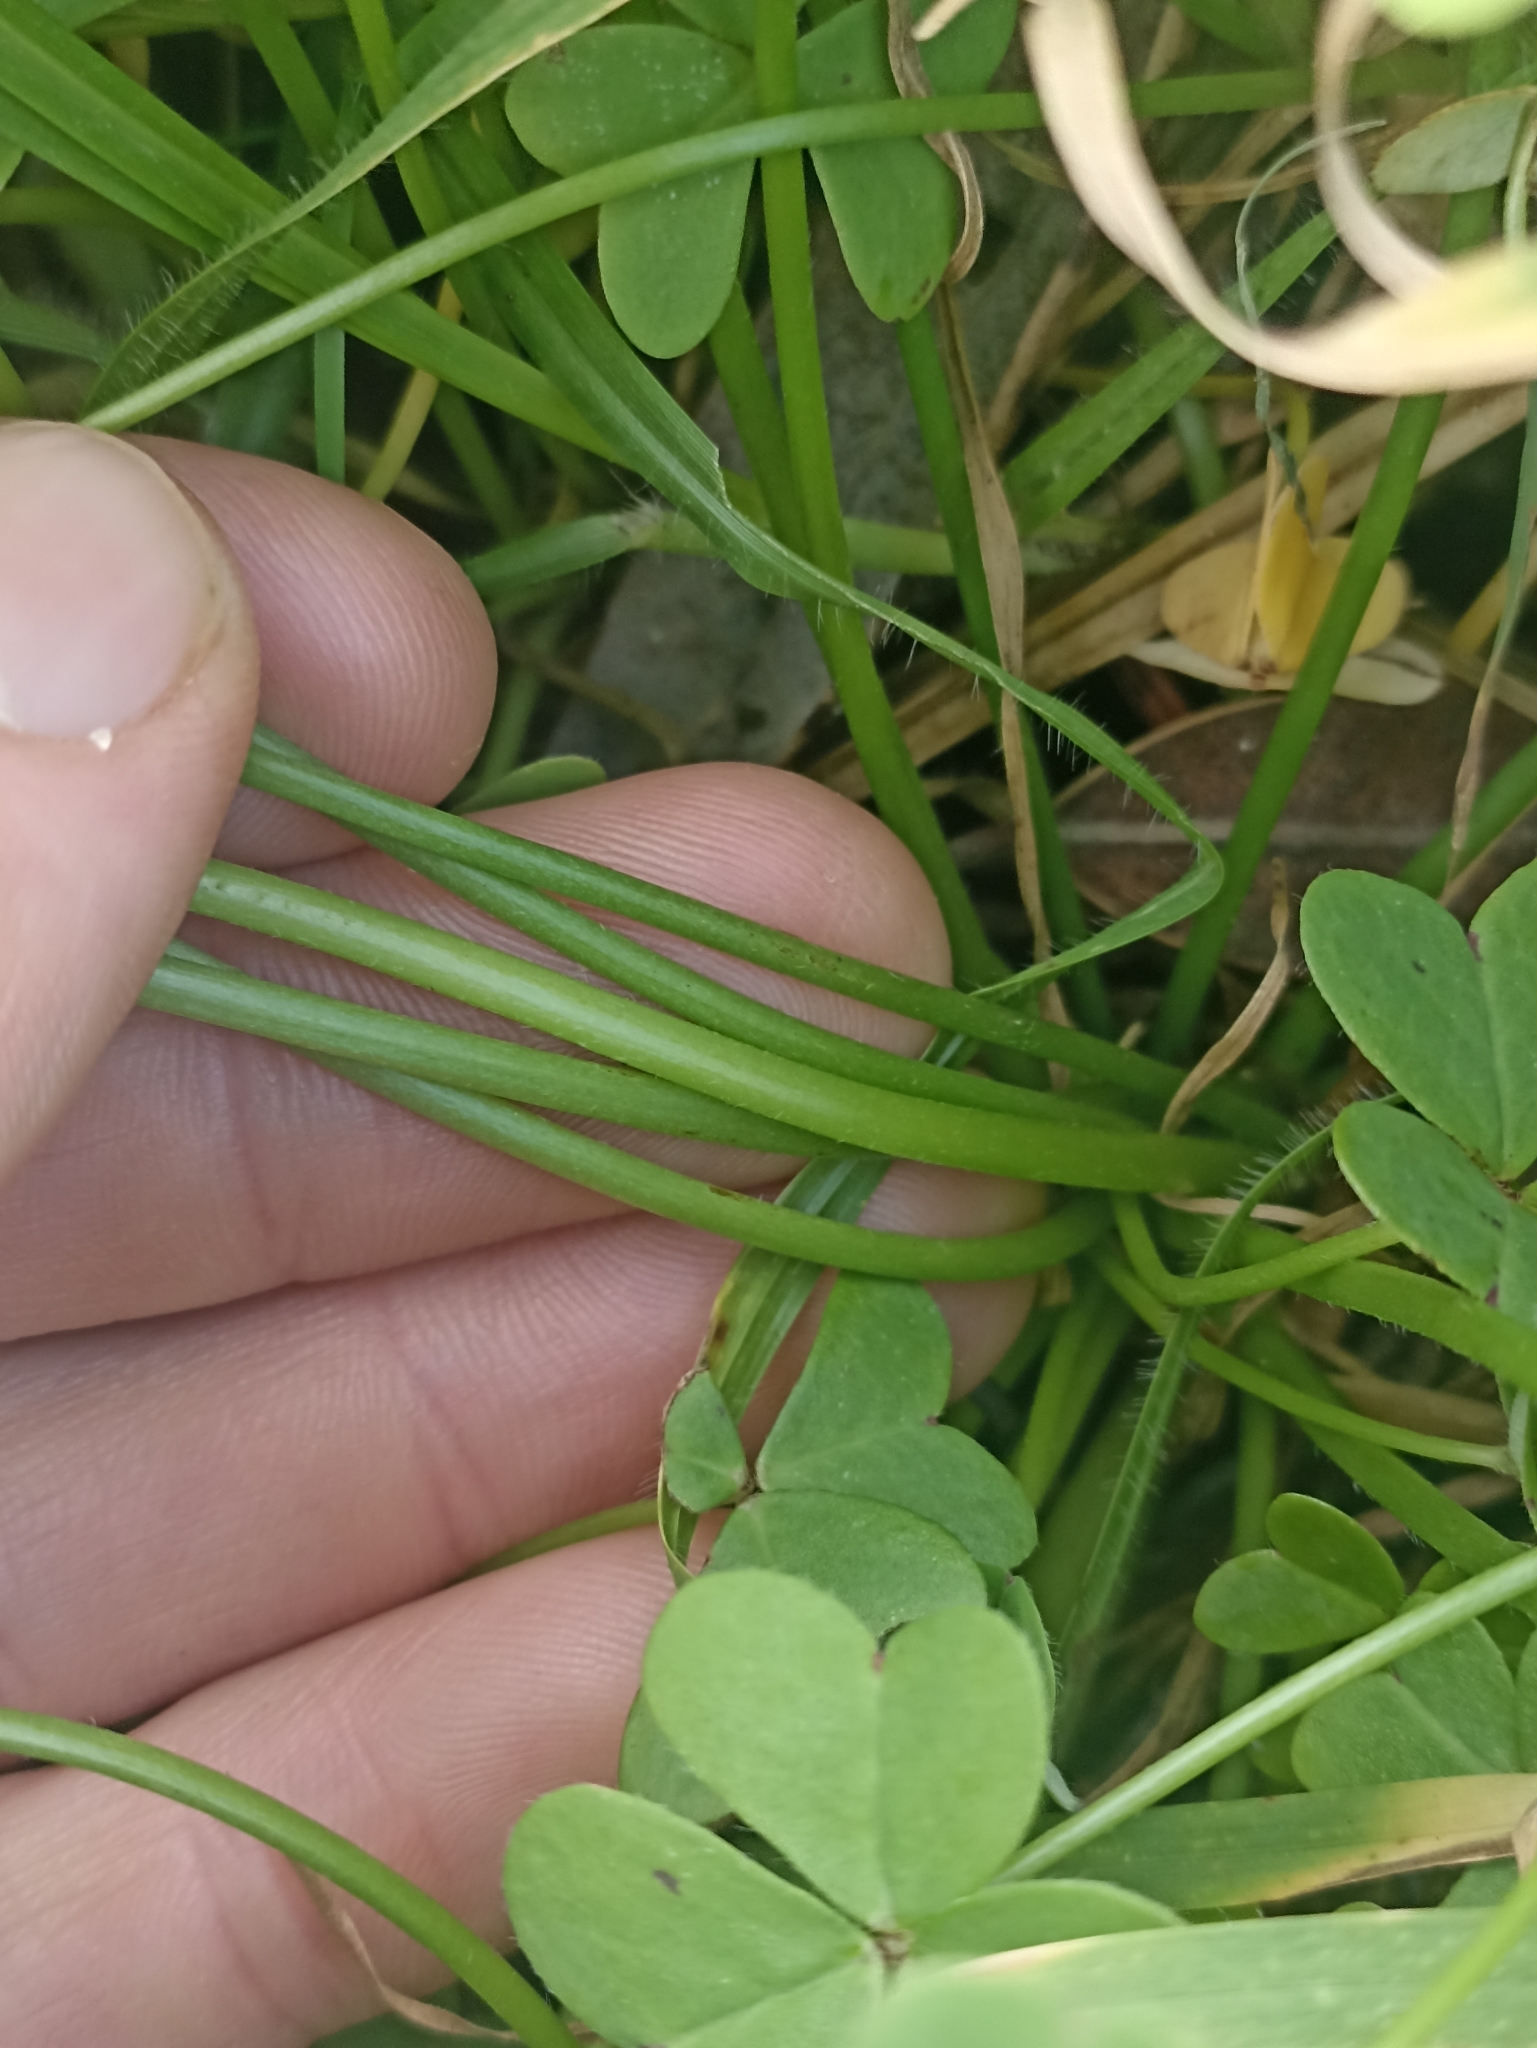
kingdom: Plantae
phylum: Tracheophyta
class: Magnoliopsida
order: Oxalidales
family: Oxalidaceae
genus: Oxalis
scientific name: Oxalis pes-caprae
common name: Bermuda-buttercup
